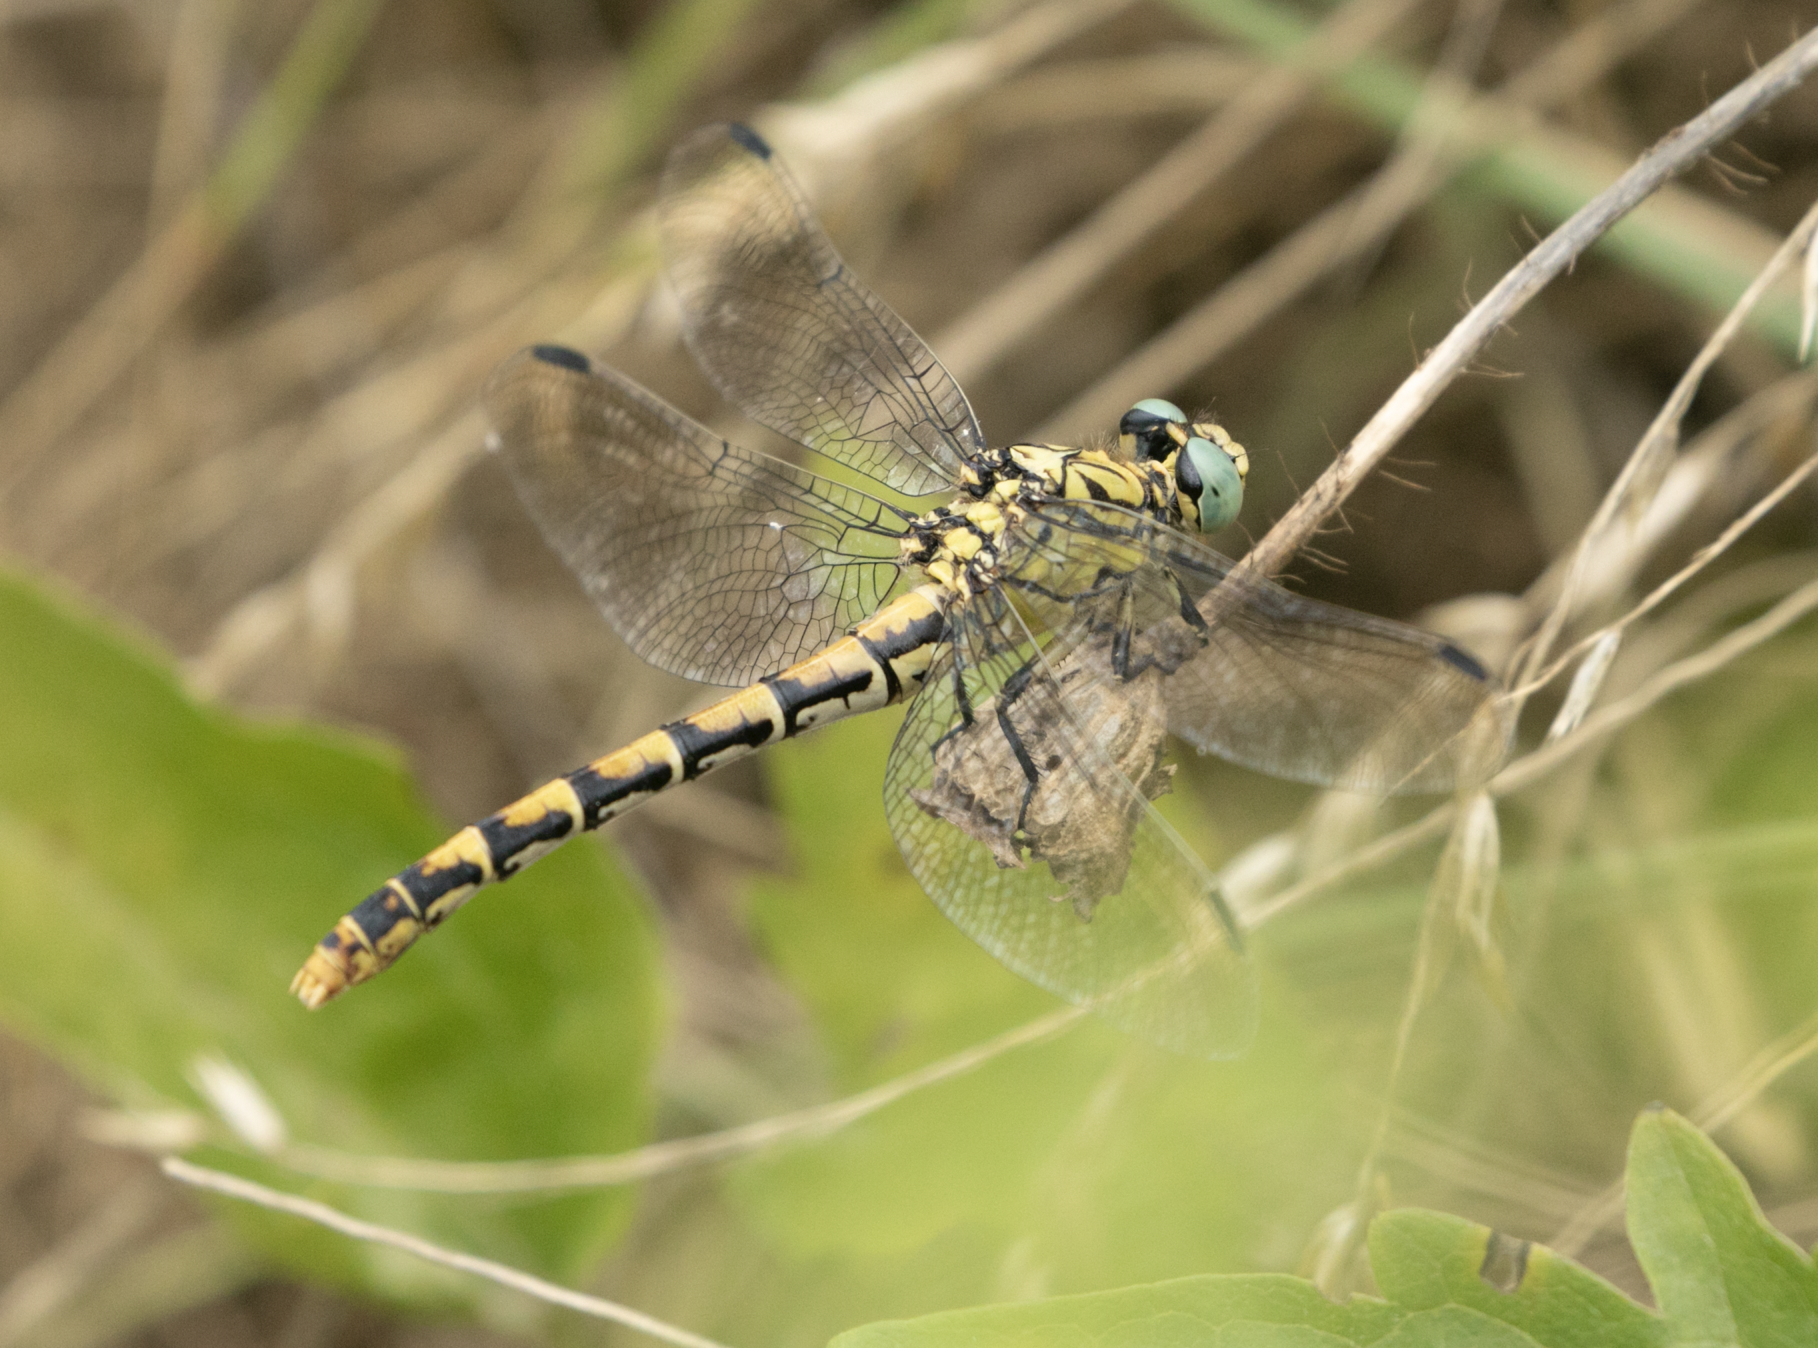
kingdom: Animalia
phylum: Arthropoda
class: Insecta
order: Odonata
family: Gomphidae
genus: Onychogomphus
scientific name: Onychogomphus forcipatus
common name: Small pincertail
